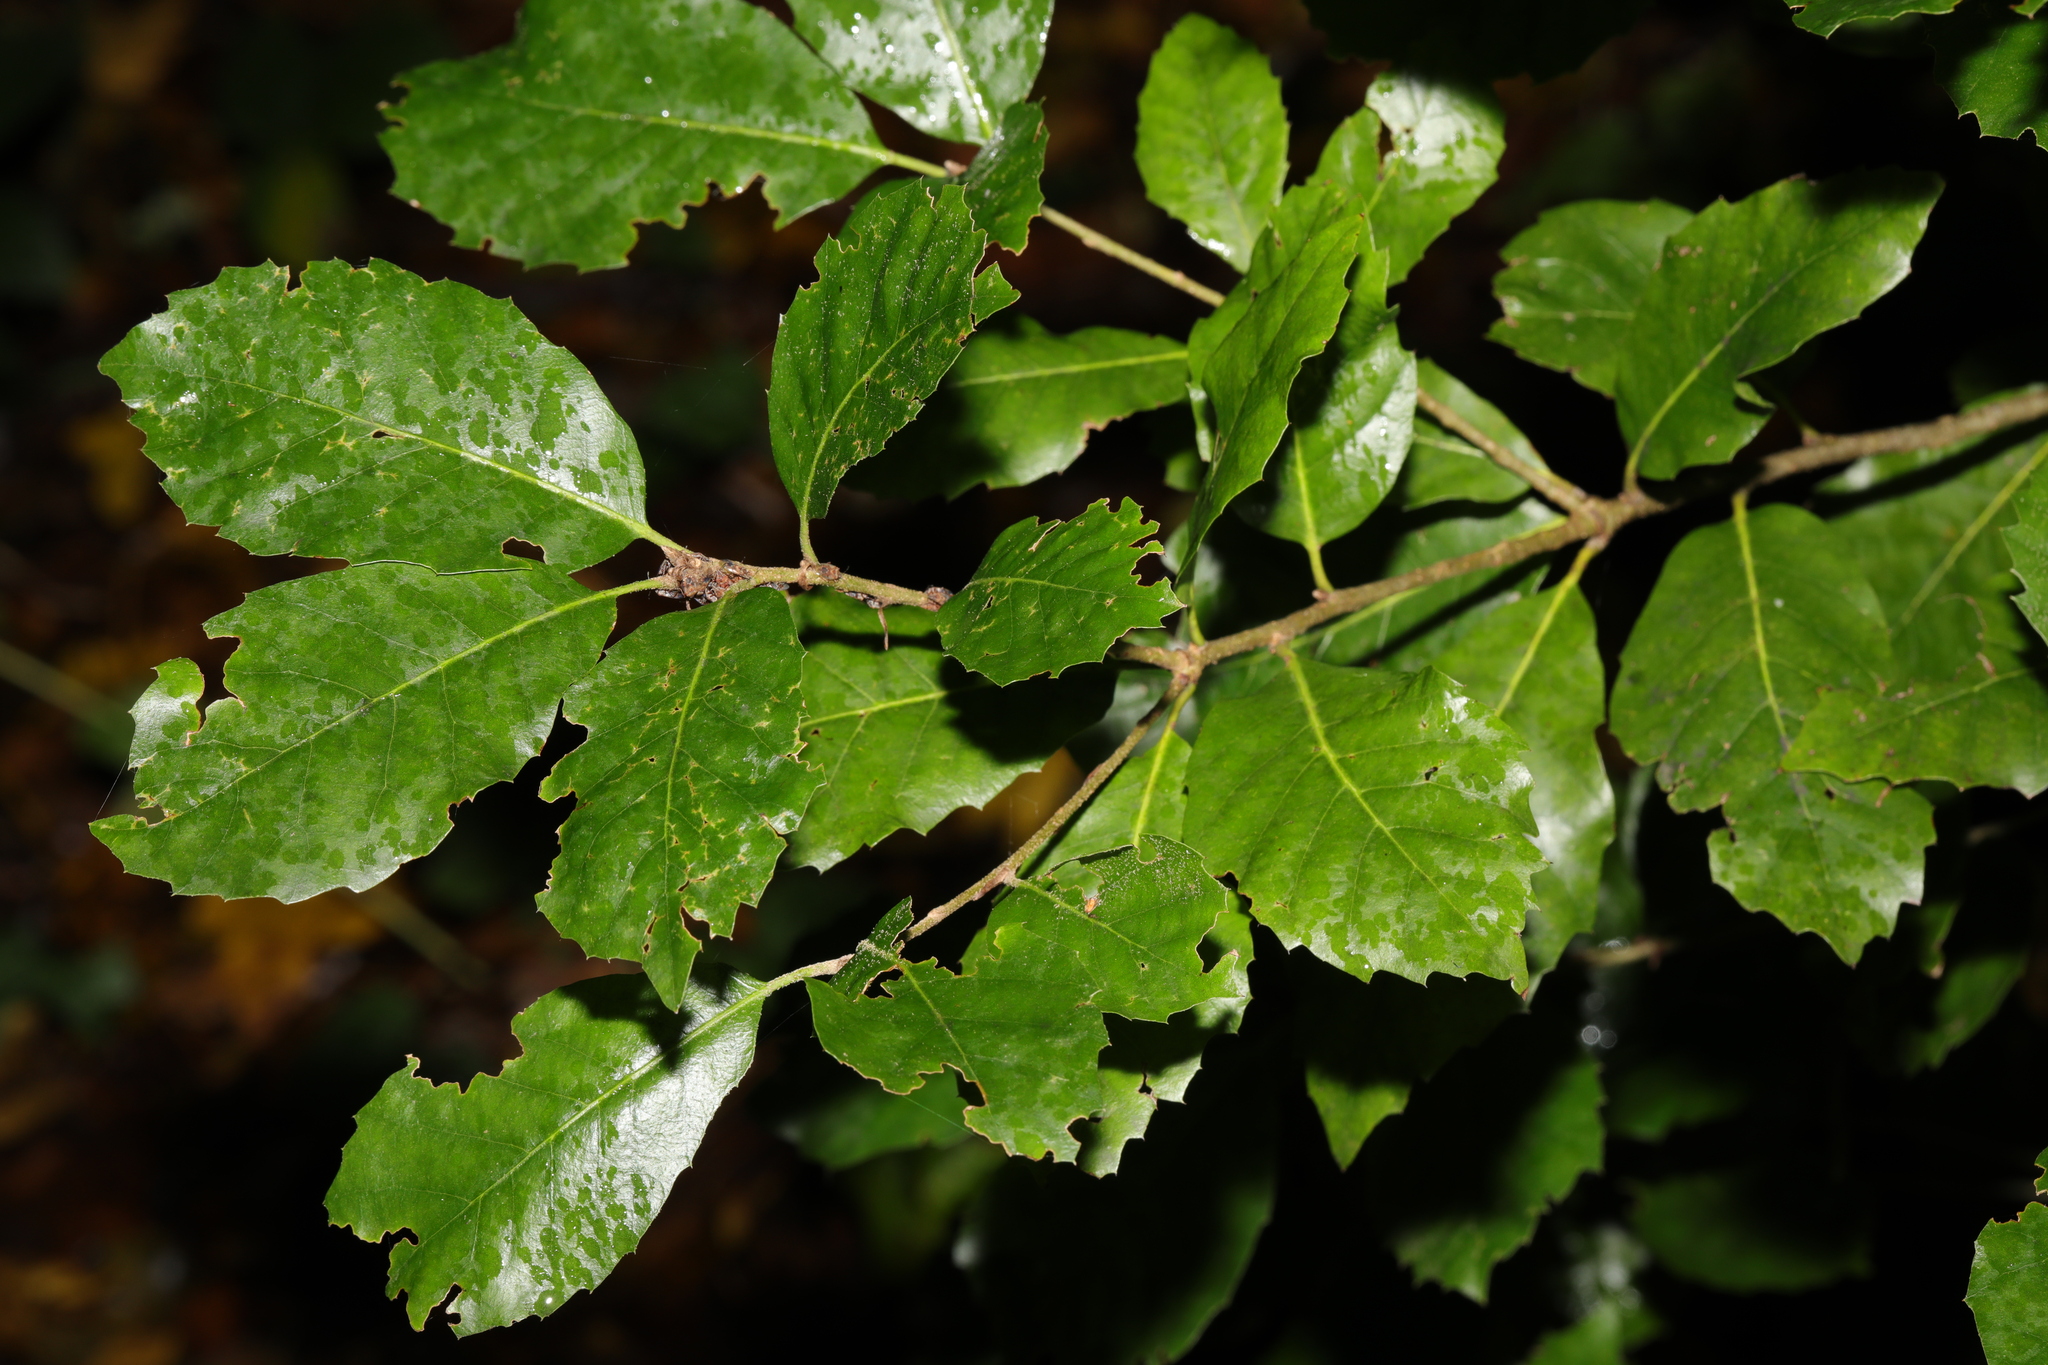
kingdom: Plantae
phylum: Tracheophyta
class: Magnoliopsida
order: Fagales
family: Fagaceae
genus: Quercus
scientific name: Quercus ilex
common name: Evergreen oak
